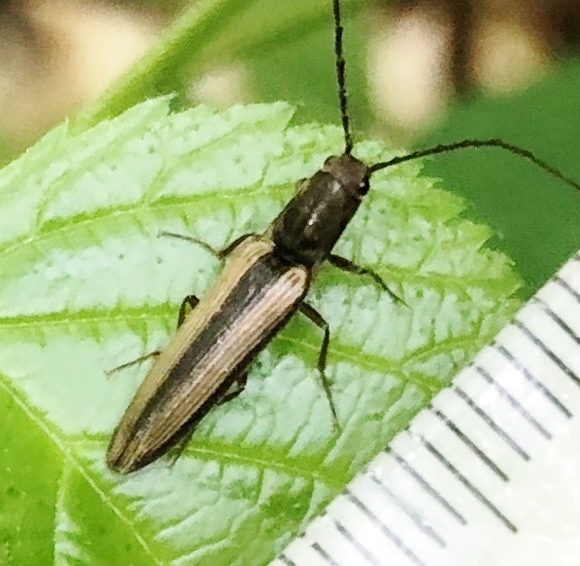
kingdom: Animalia
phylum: Arthropoda
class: Insecta
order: Coleoptera
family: Elateridae
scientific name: Elateridae
